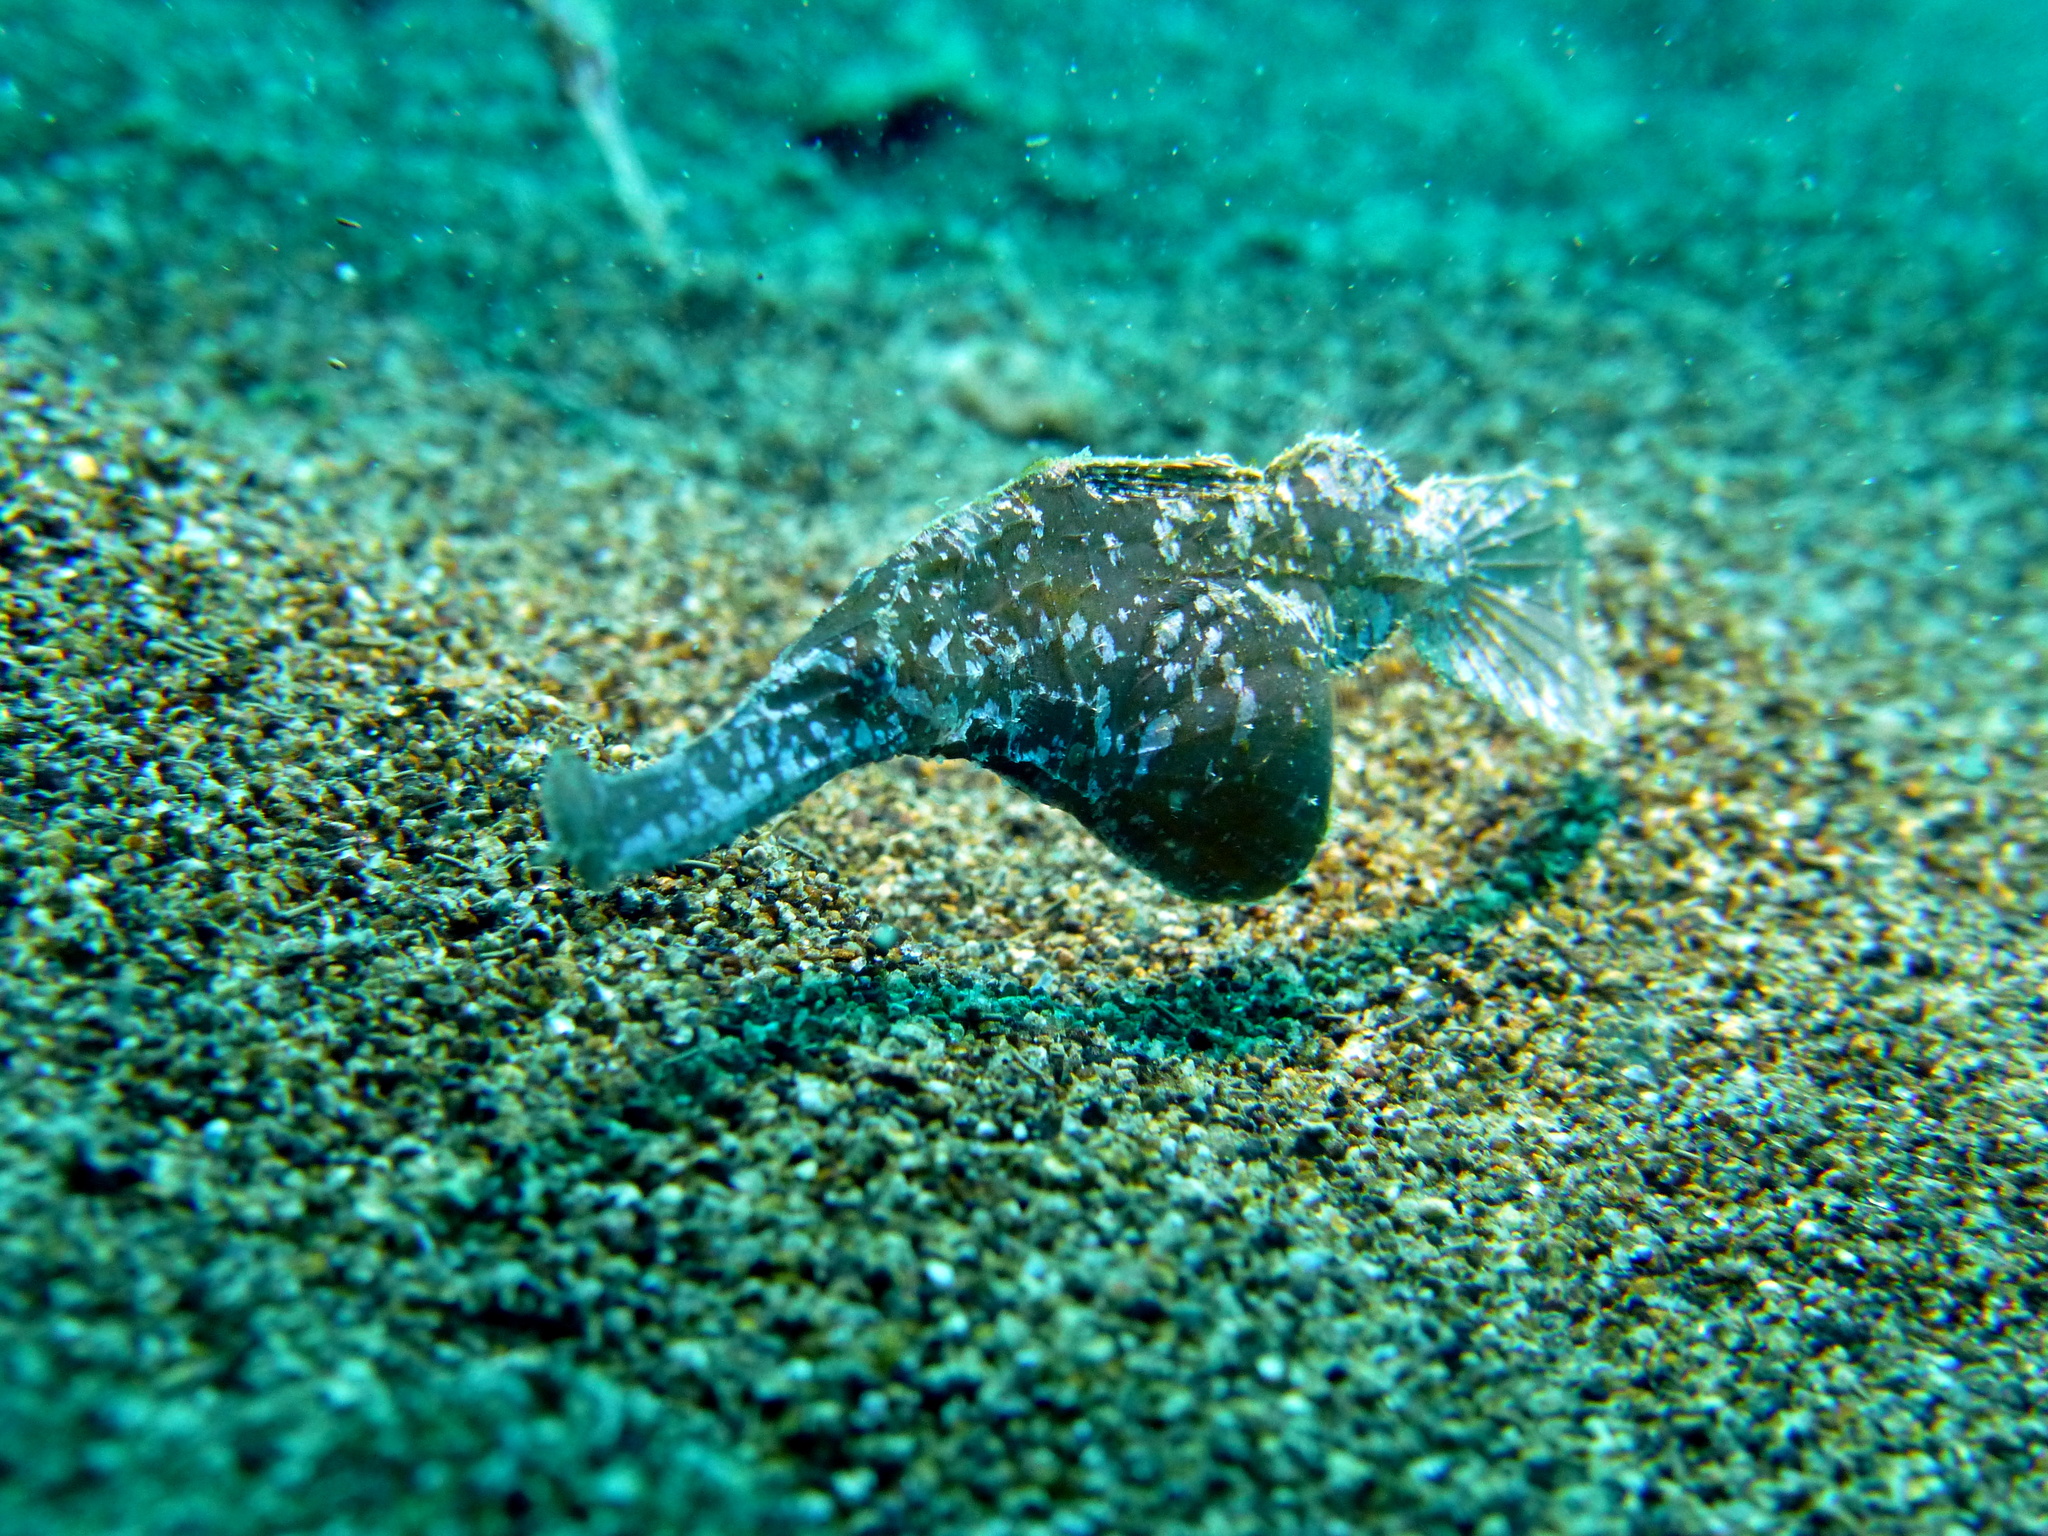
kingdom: Animalia
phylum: Chordata
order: Syngnathiformes
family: Solenostomidae
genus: Solenostomus
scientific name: Solenostomus cyanopterus
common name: Blue-finned ghost pipefish
